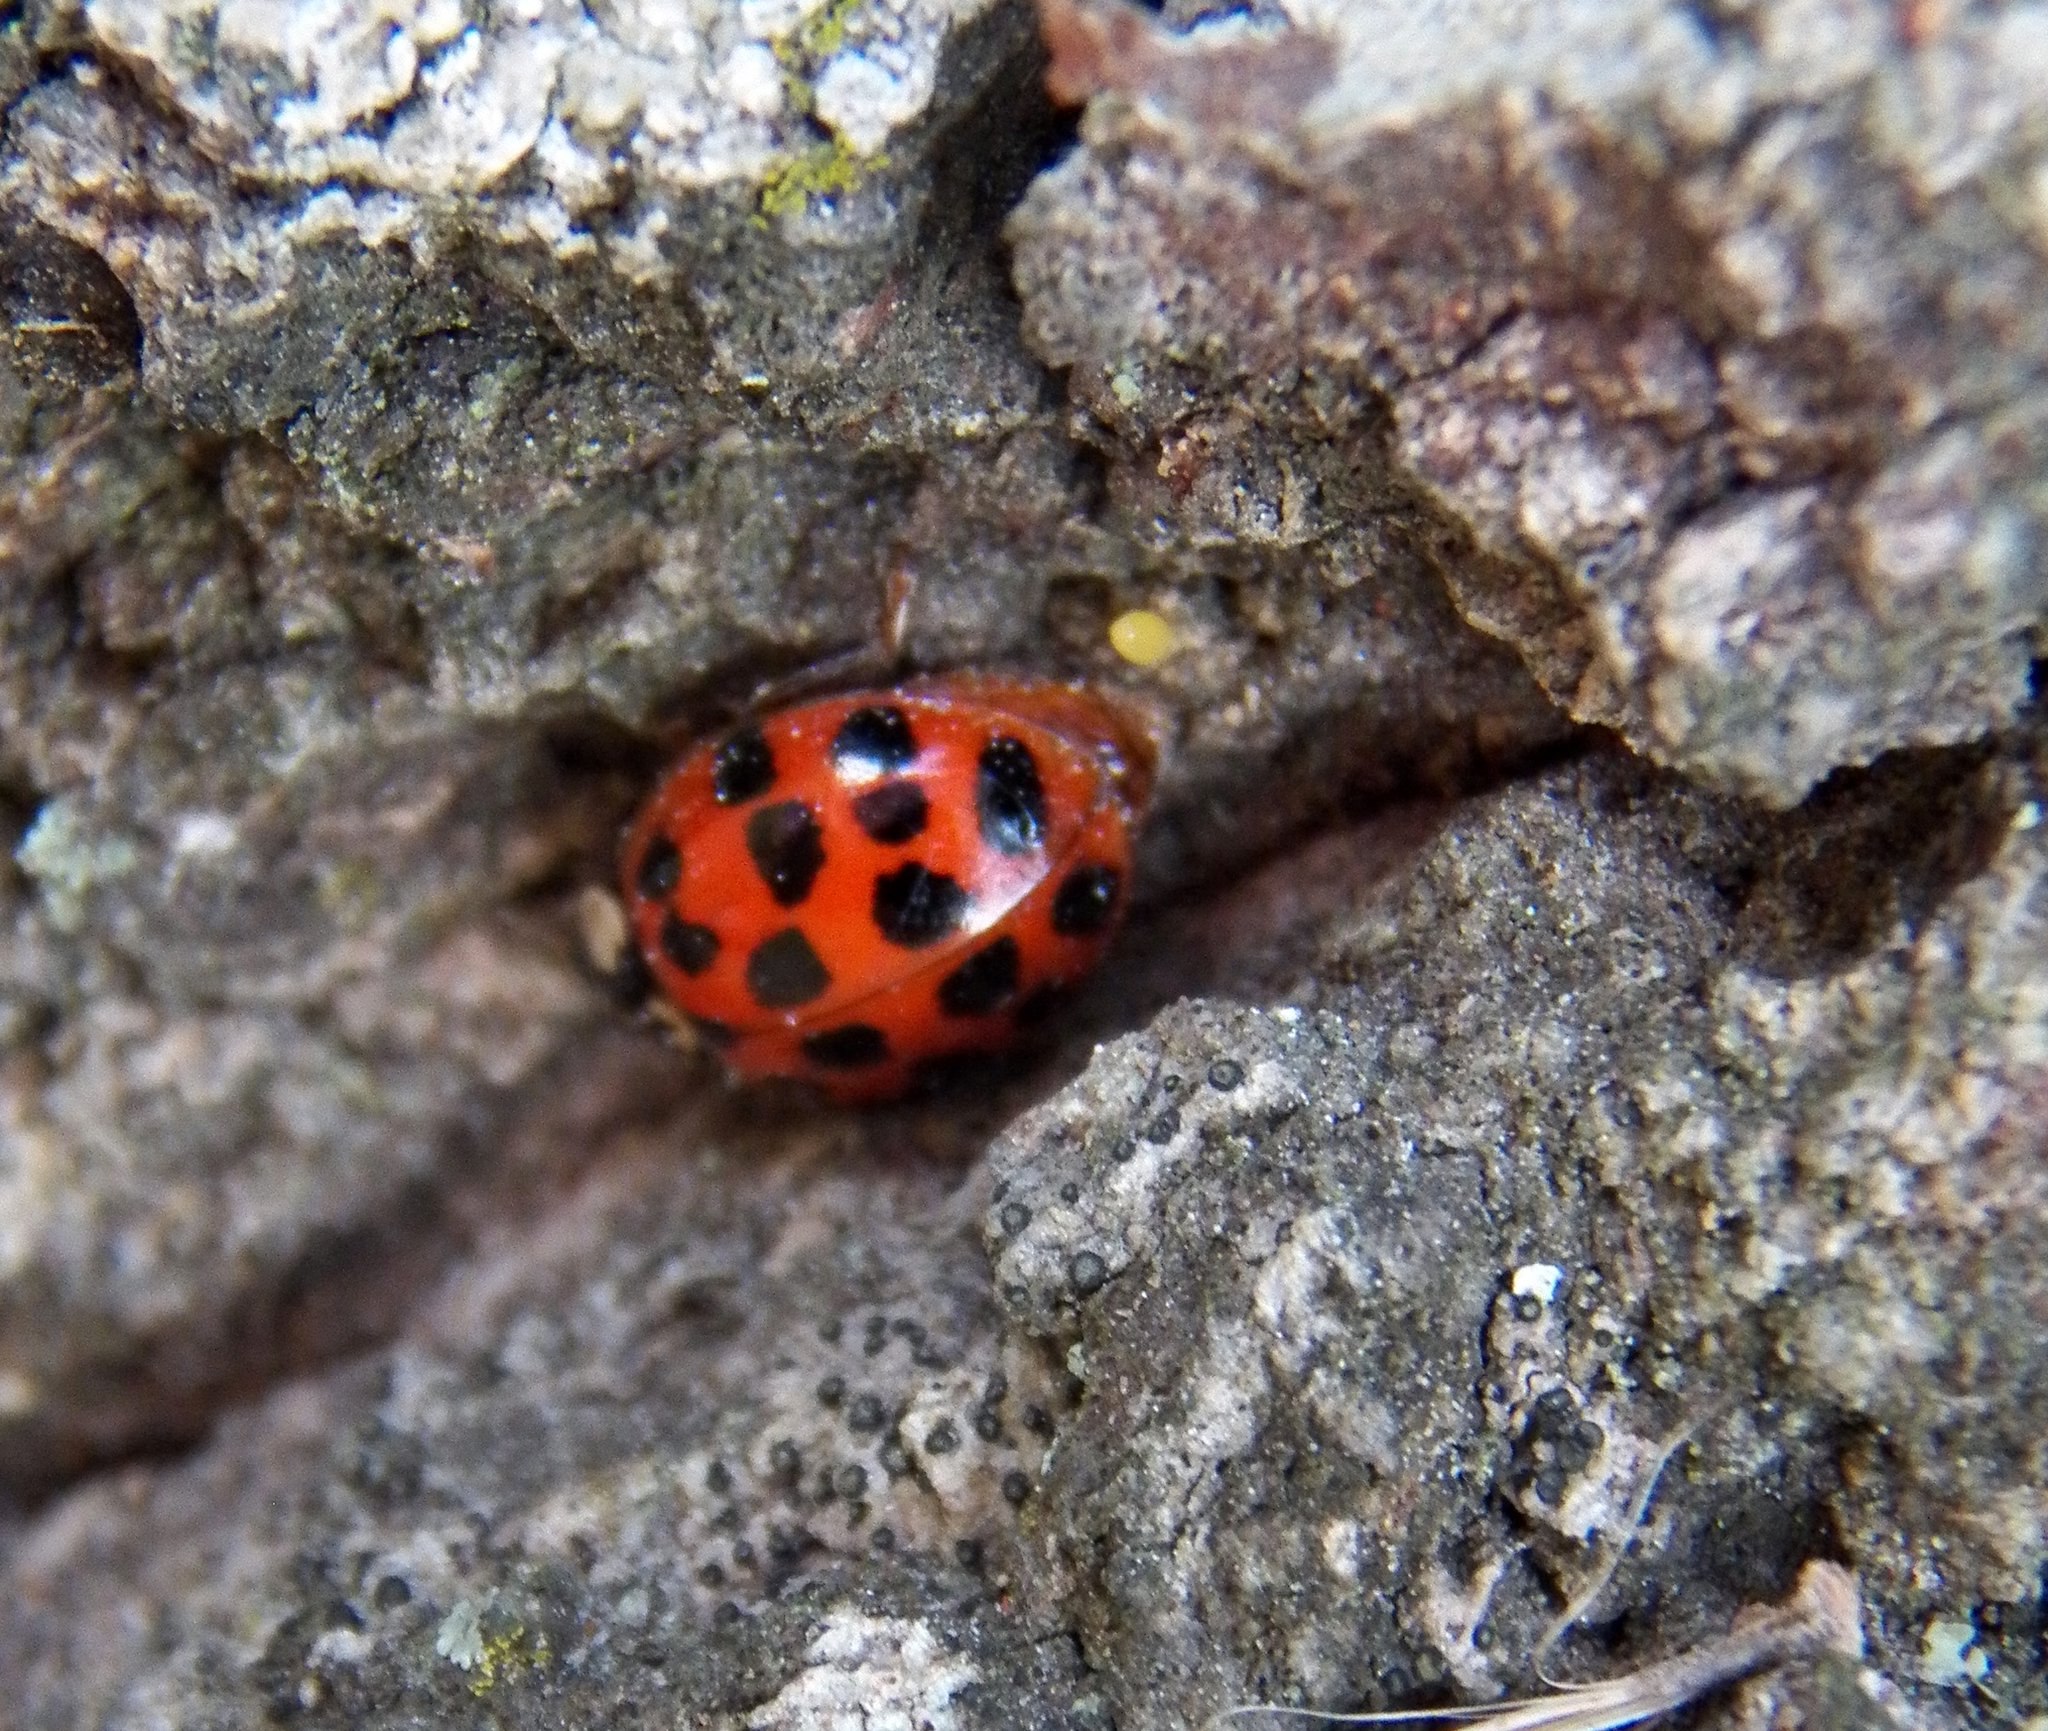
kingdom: Animalia
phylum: Arthropoda
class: Insecta
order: Coleoptera
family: Coccinellidae
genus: Harmonia
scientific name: Harmonia axyridis
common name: Harlequin ladybird
